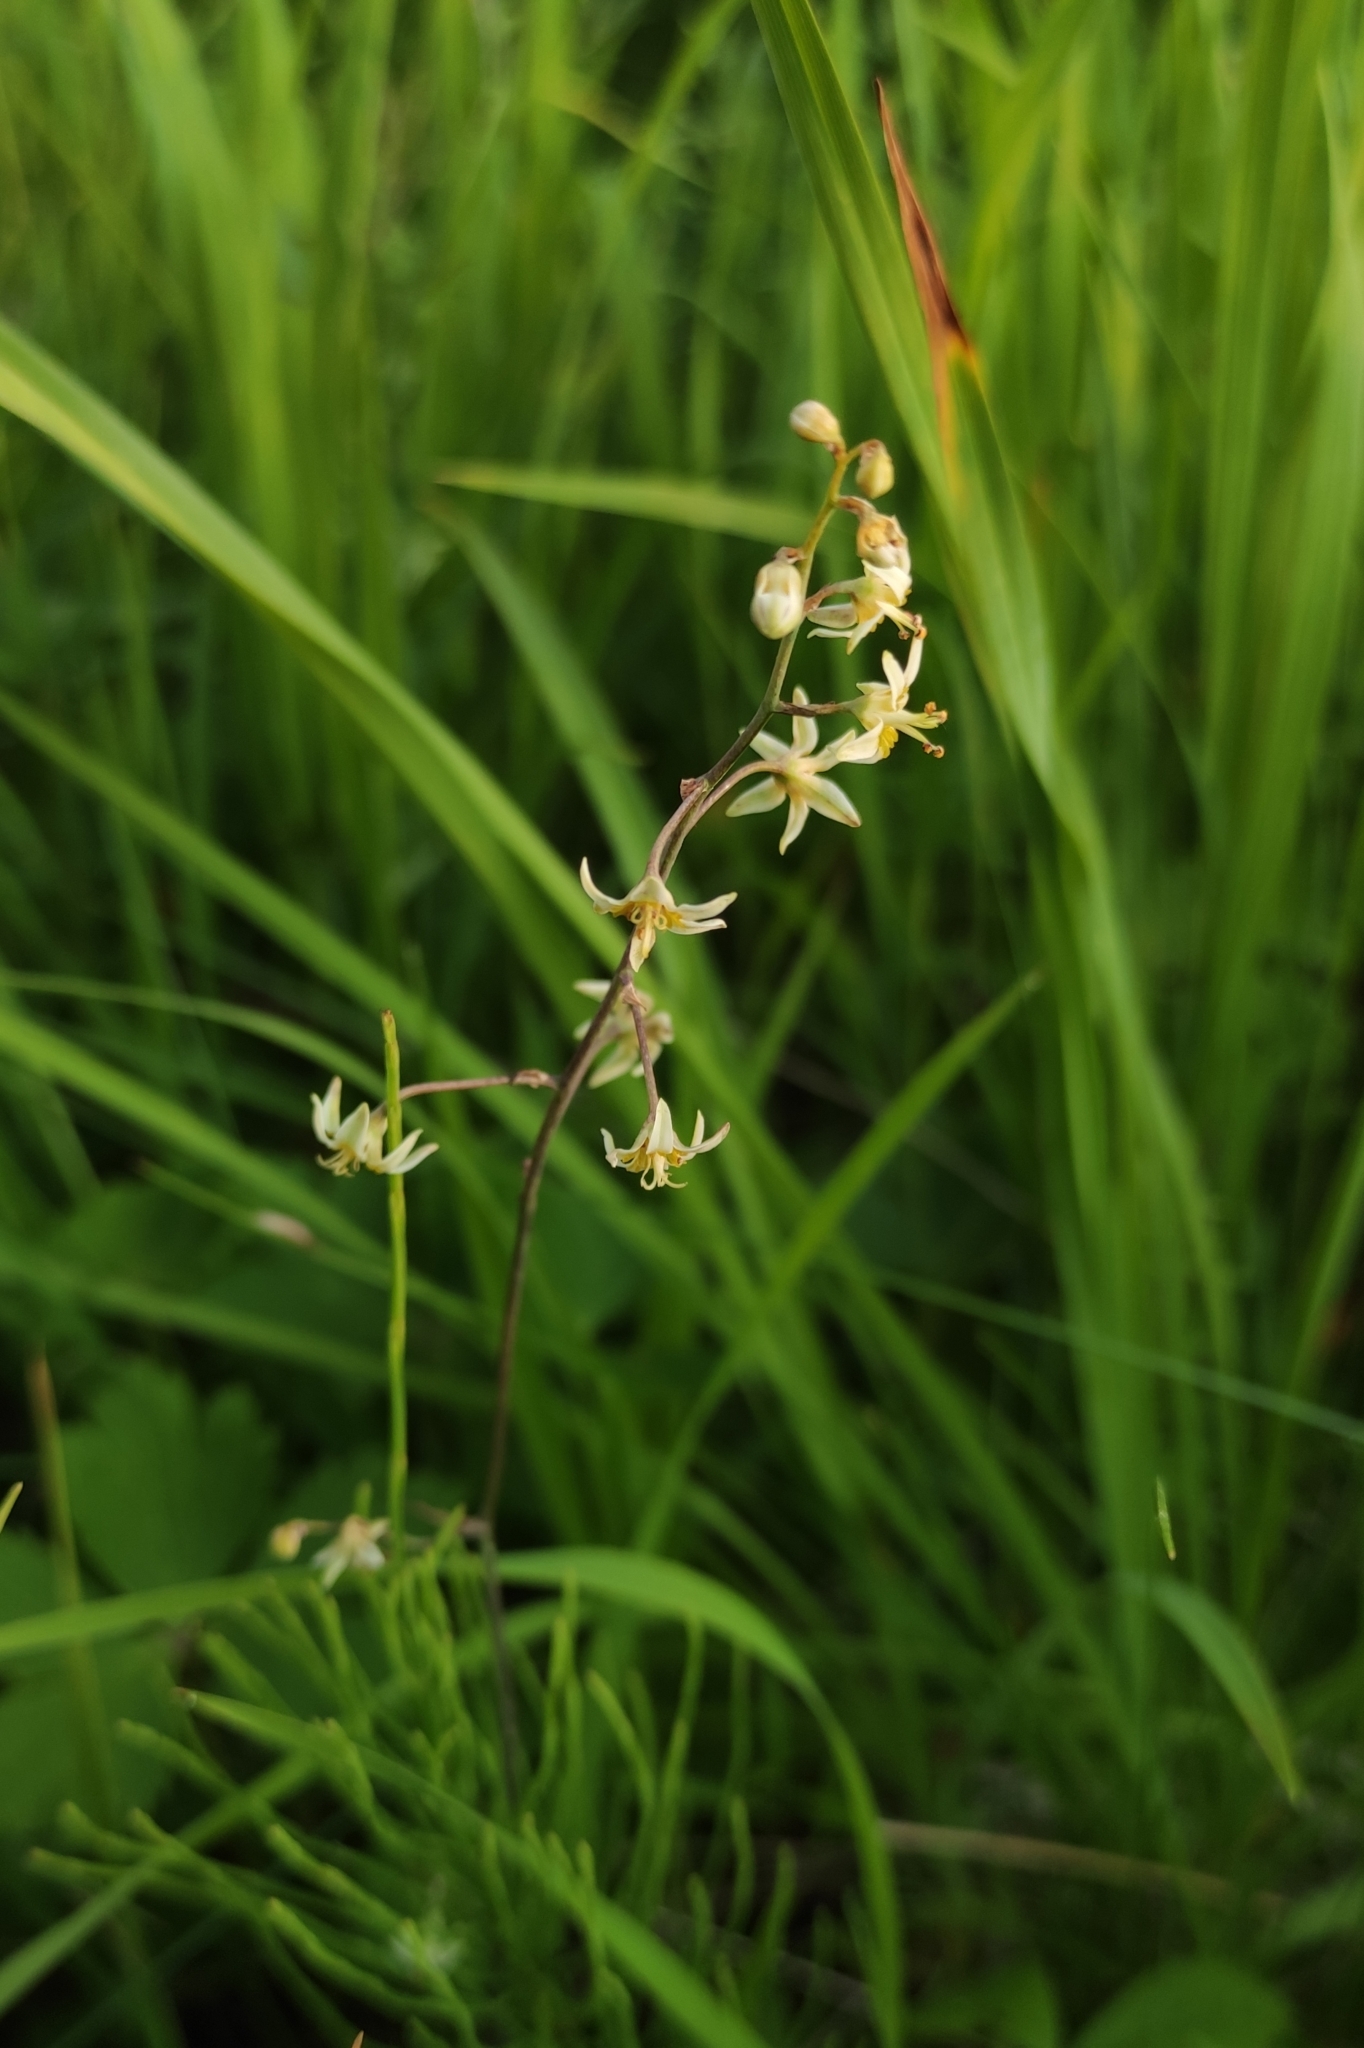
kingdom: Plantae
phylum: Tracheophyta
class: Liliopsida
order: Liliales
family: Melanthiaceae
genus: Anticlea
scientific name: Anticlea sibirica
